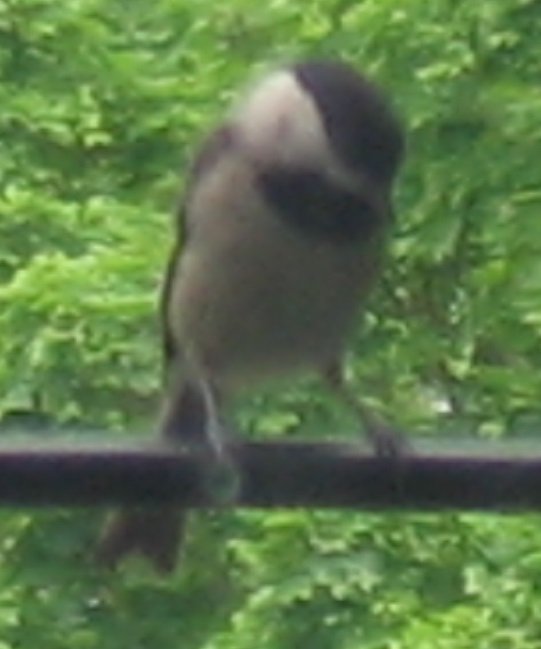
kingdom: Animalia
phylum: Chordata
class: Aves
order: Passeriformes
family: Paridae
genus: Poecile
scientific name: Poecile carolinensis
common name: Carolina chickadee
